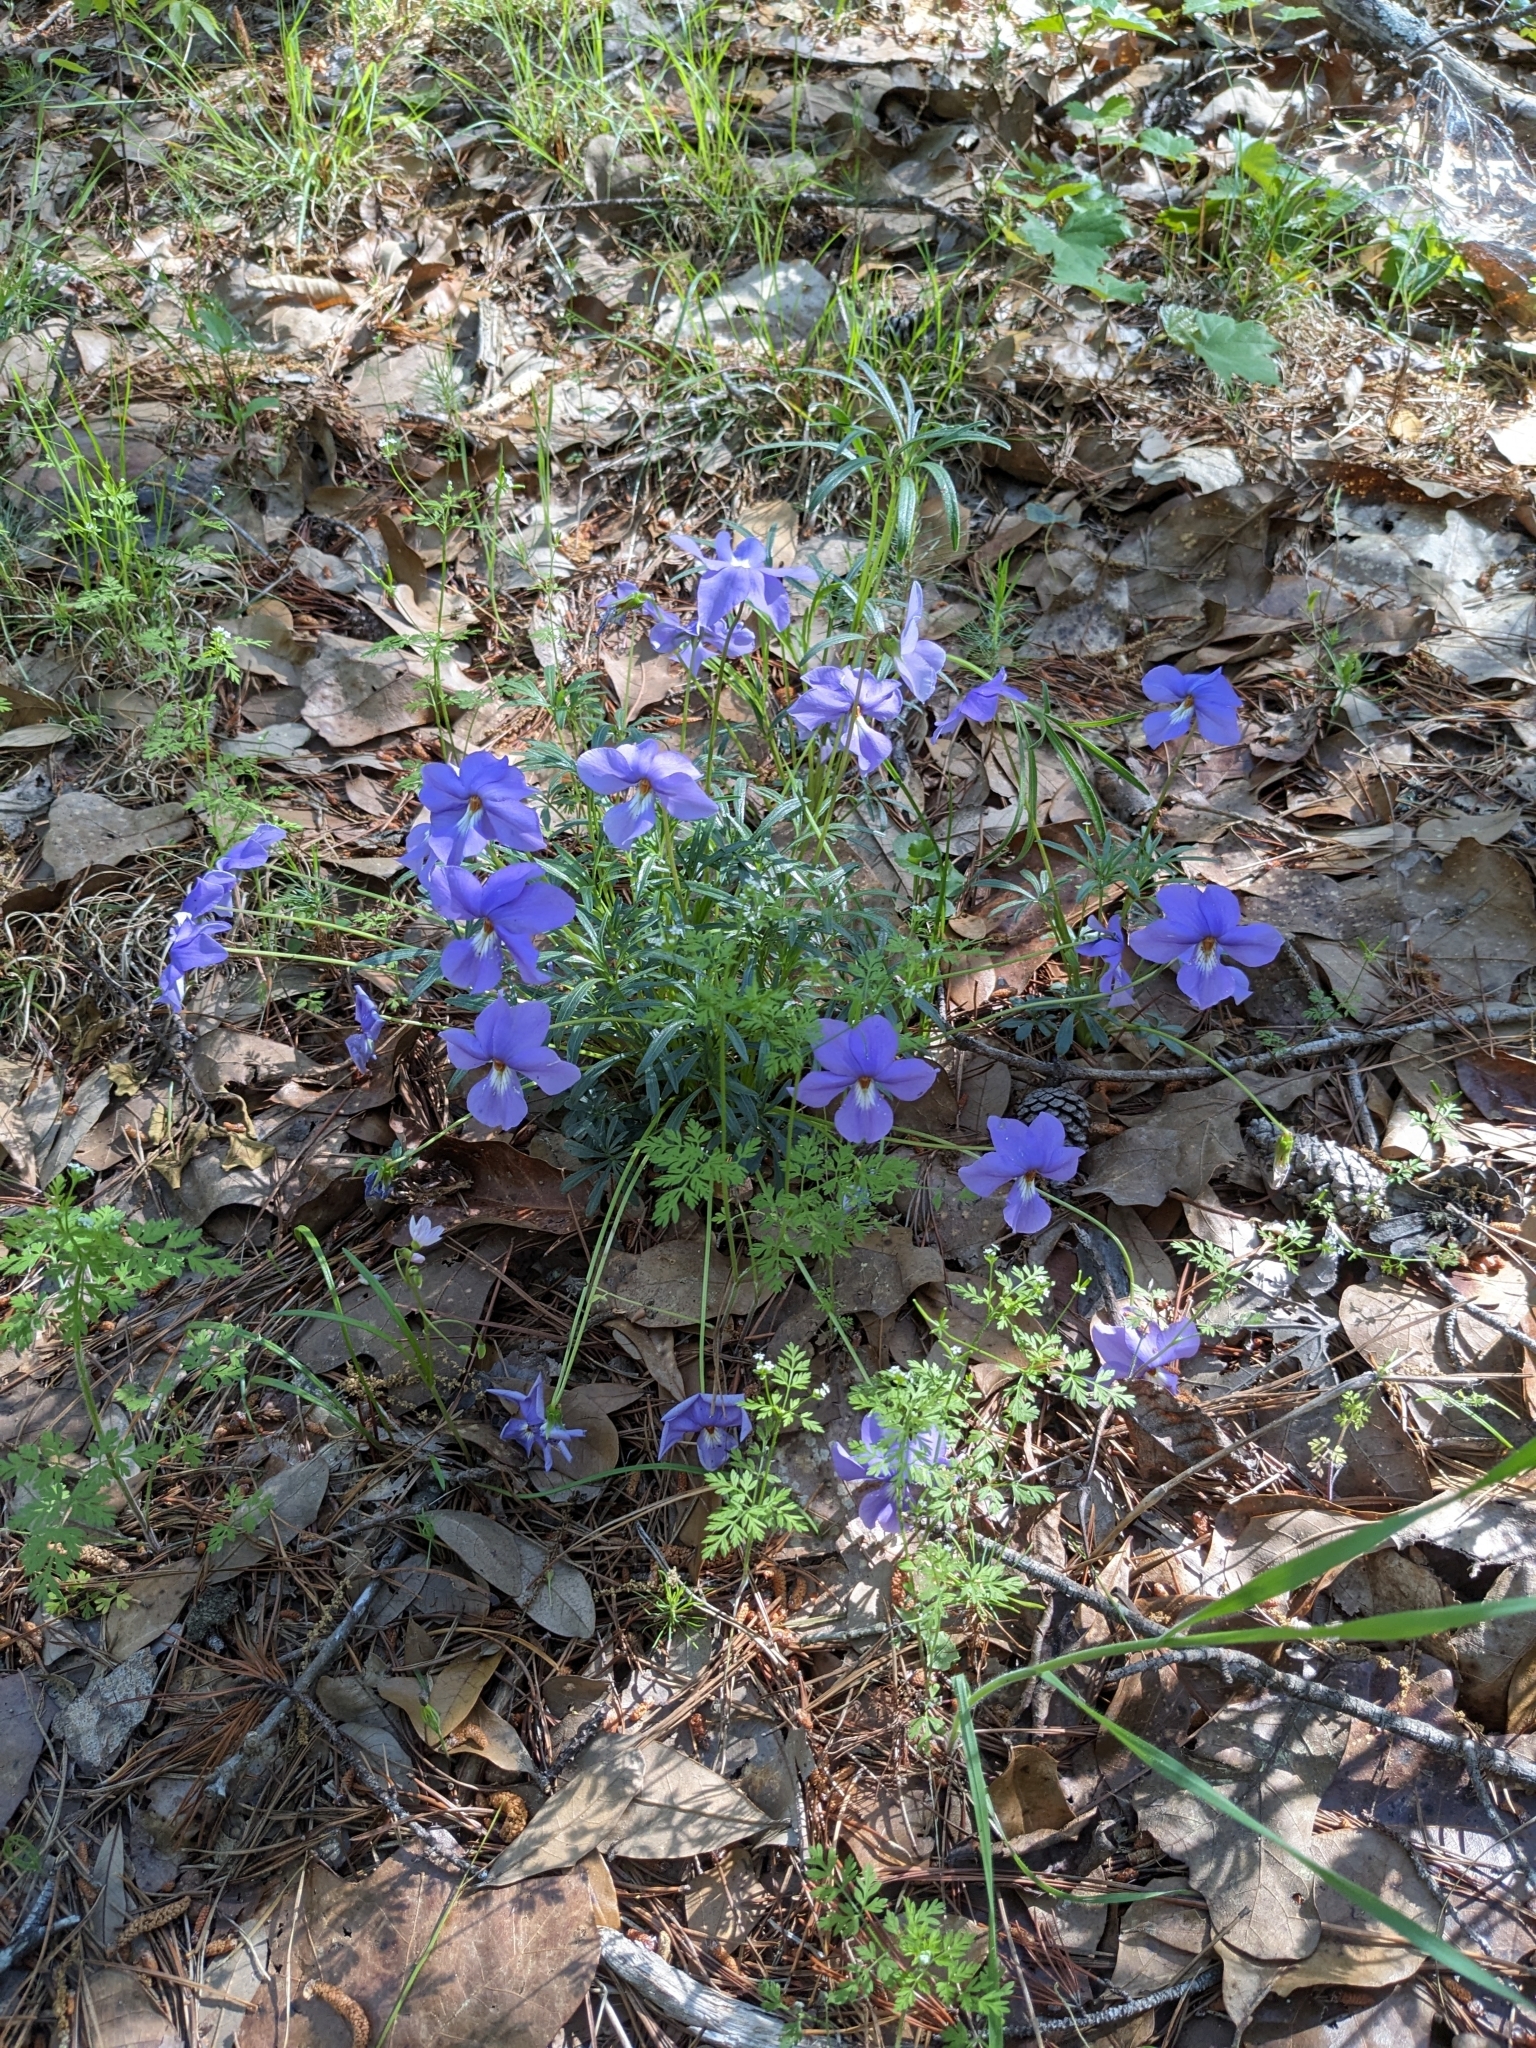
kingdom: Plantae
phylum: Tracheophyta
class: Magnoliopsida
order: Malpighiales
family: Violaceae
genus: Viola
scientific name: Viola pedata
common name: Pansy violet
